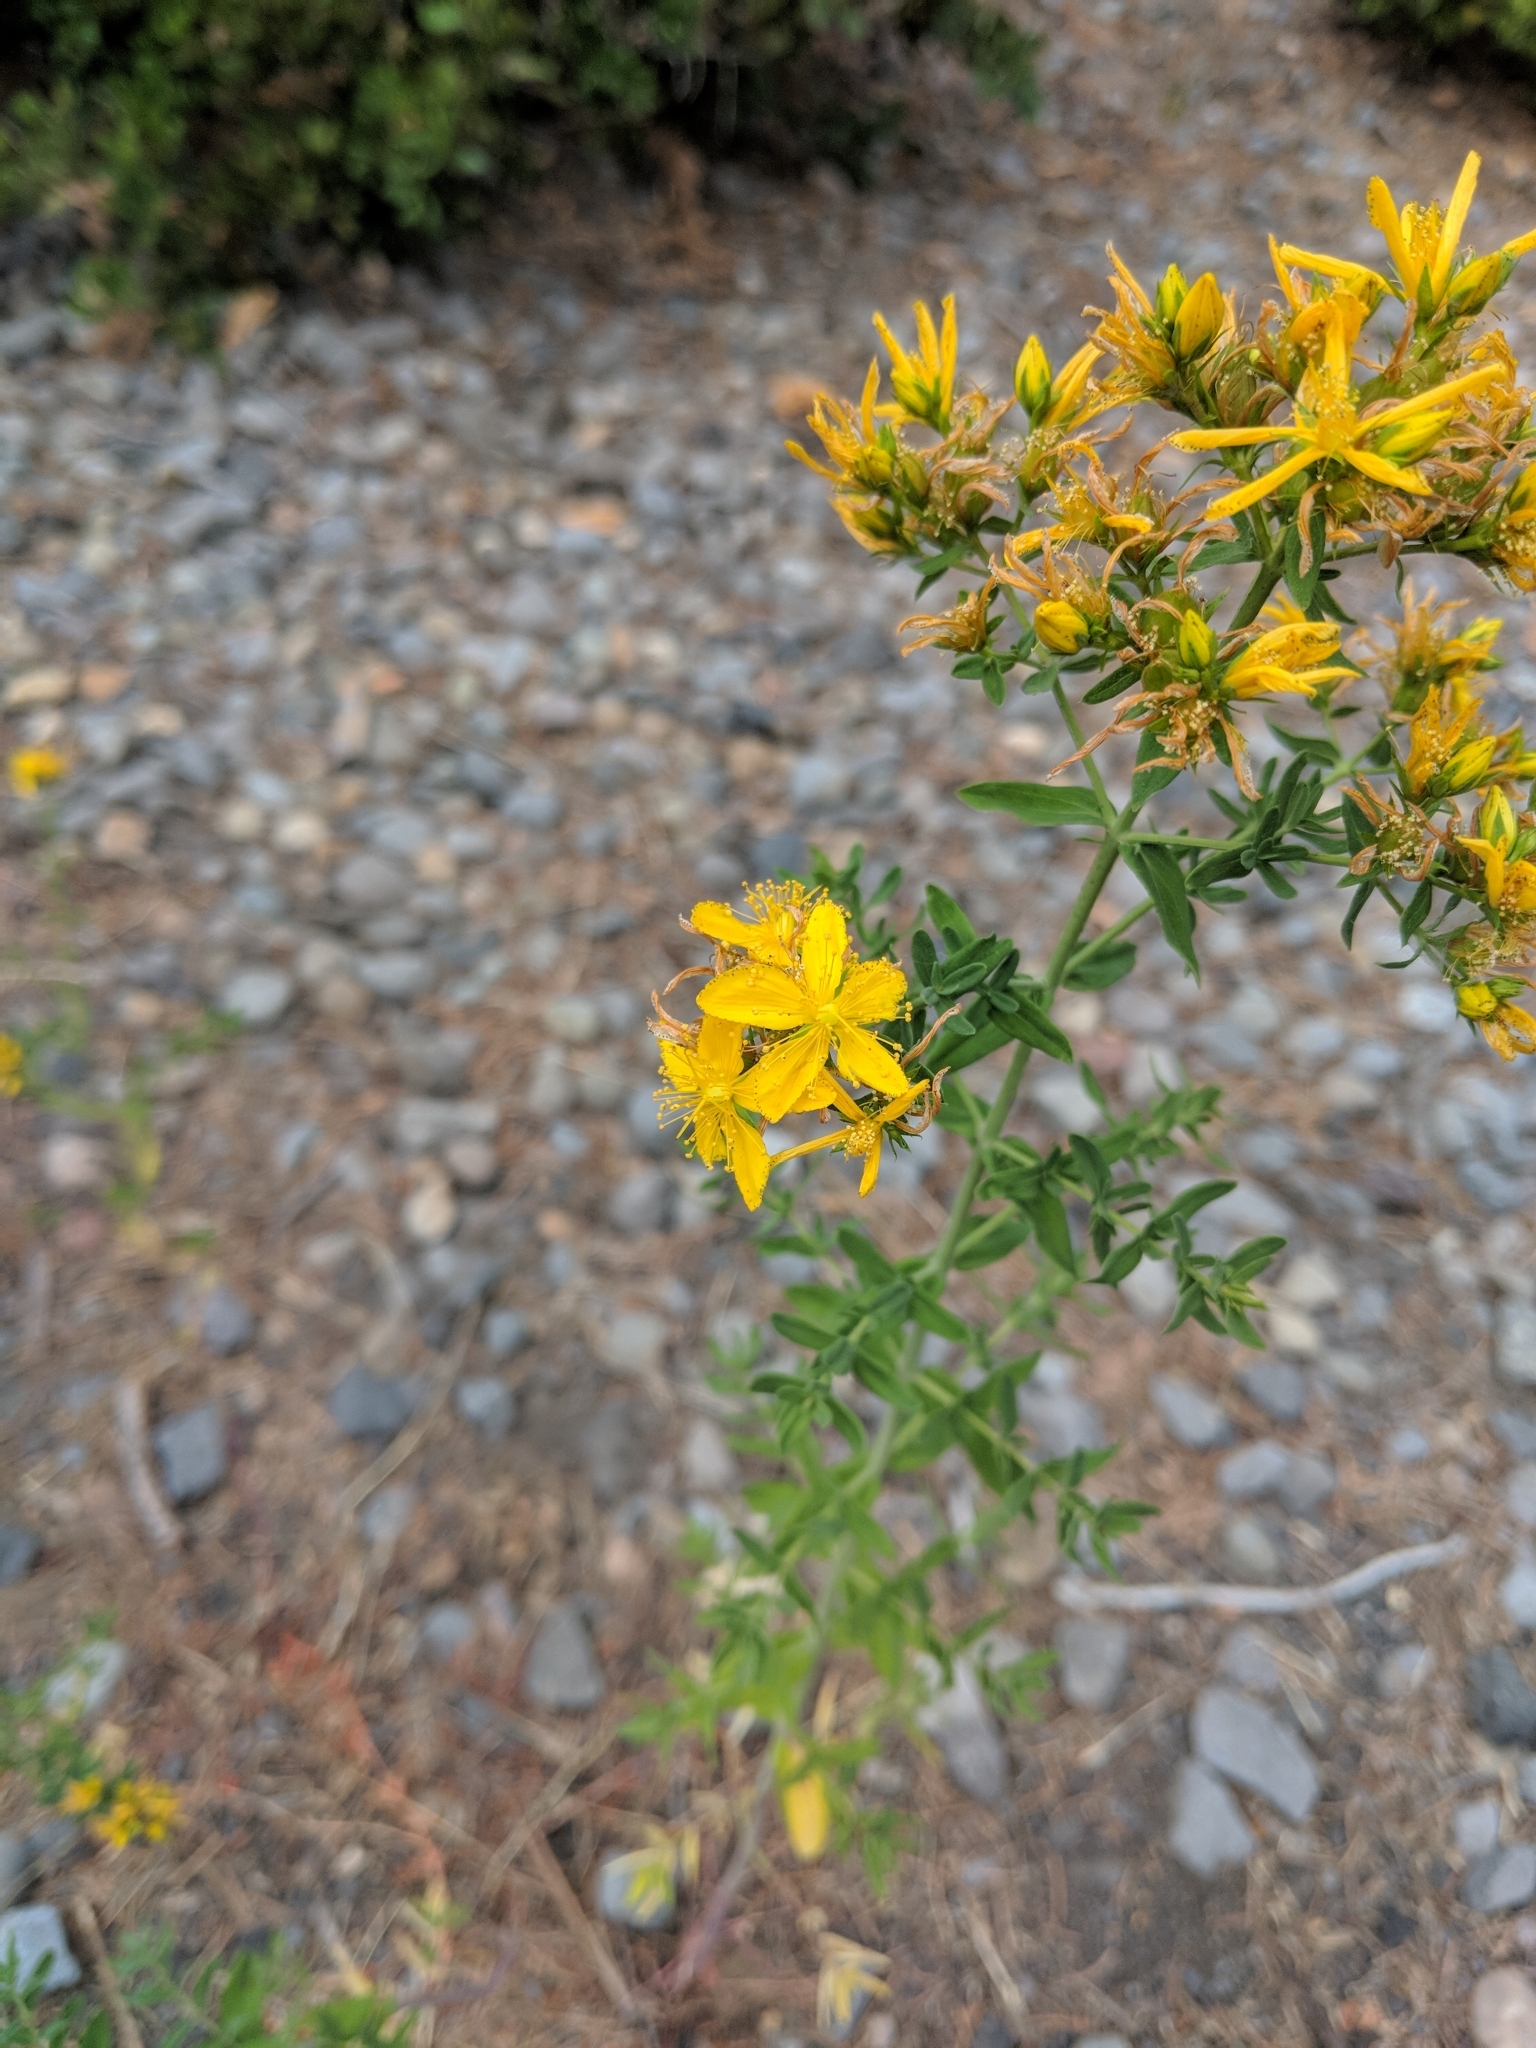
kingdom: Plantae
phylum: Tracheophyta
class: Magnoliopsida
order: Malpighiales
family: Hypericaceae
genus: Hypericum
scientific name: Hypericum perforatum
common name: Common st. johnswort
